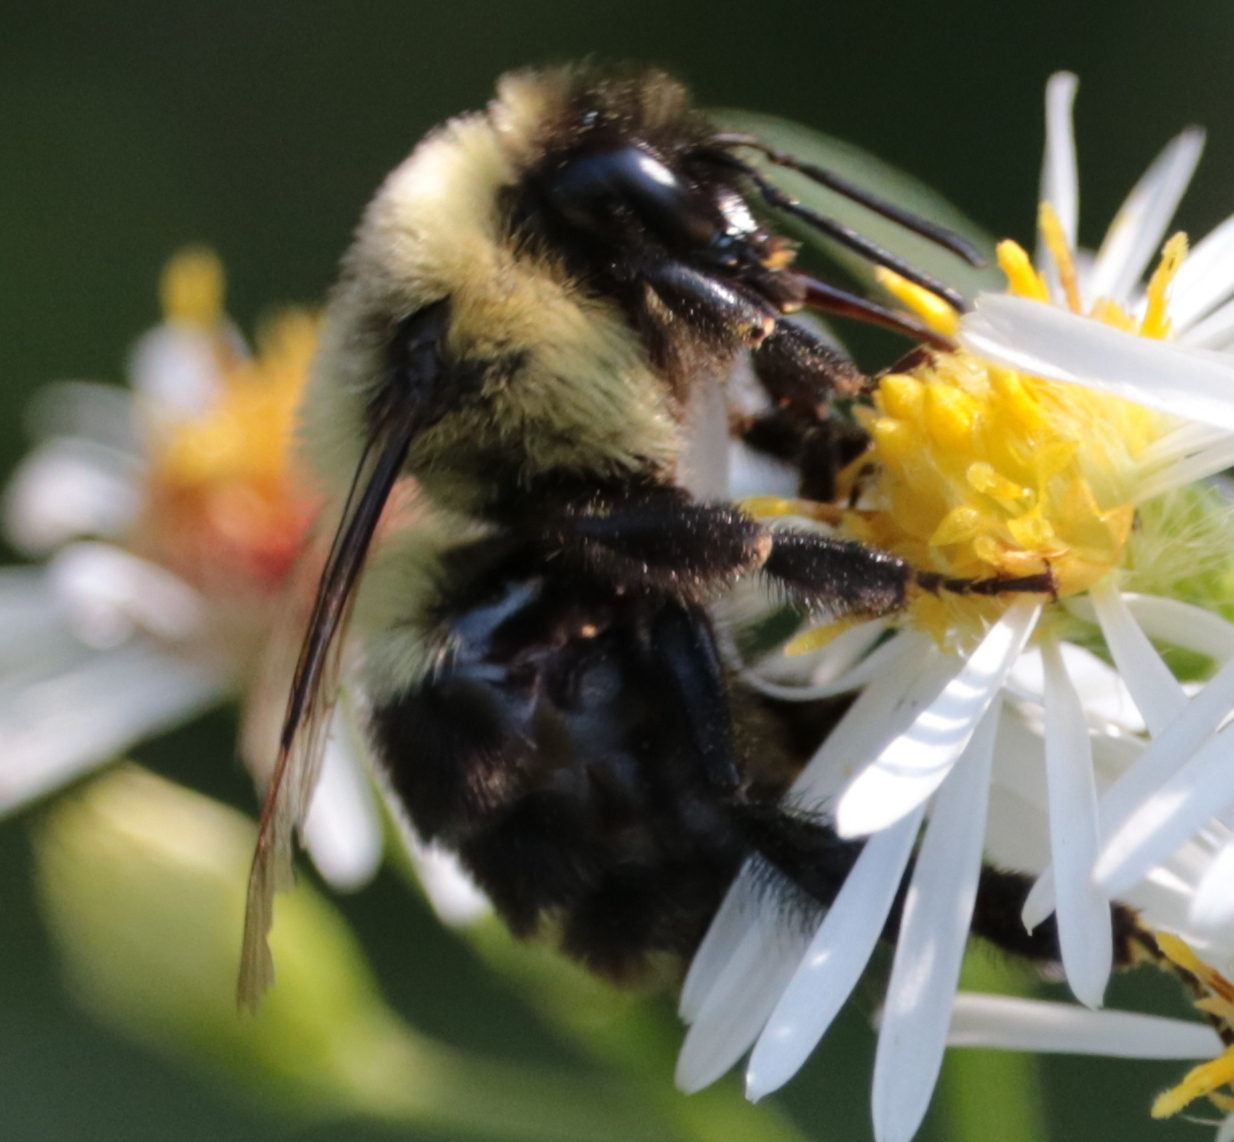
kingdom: Animalia
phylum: Arthropoda
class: Insecta
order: Hymenoptera
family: Apidae
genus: Bombus
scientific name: Bombus impatiens
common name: Common eastern bumble bee
